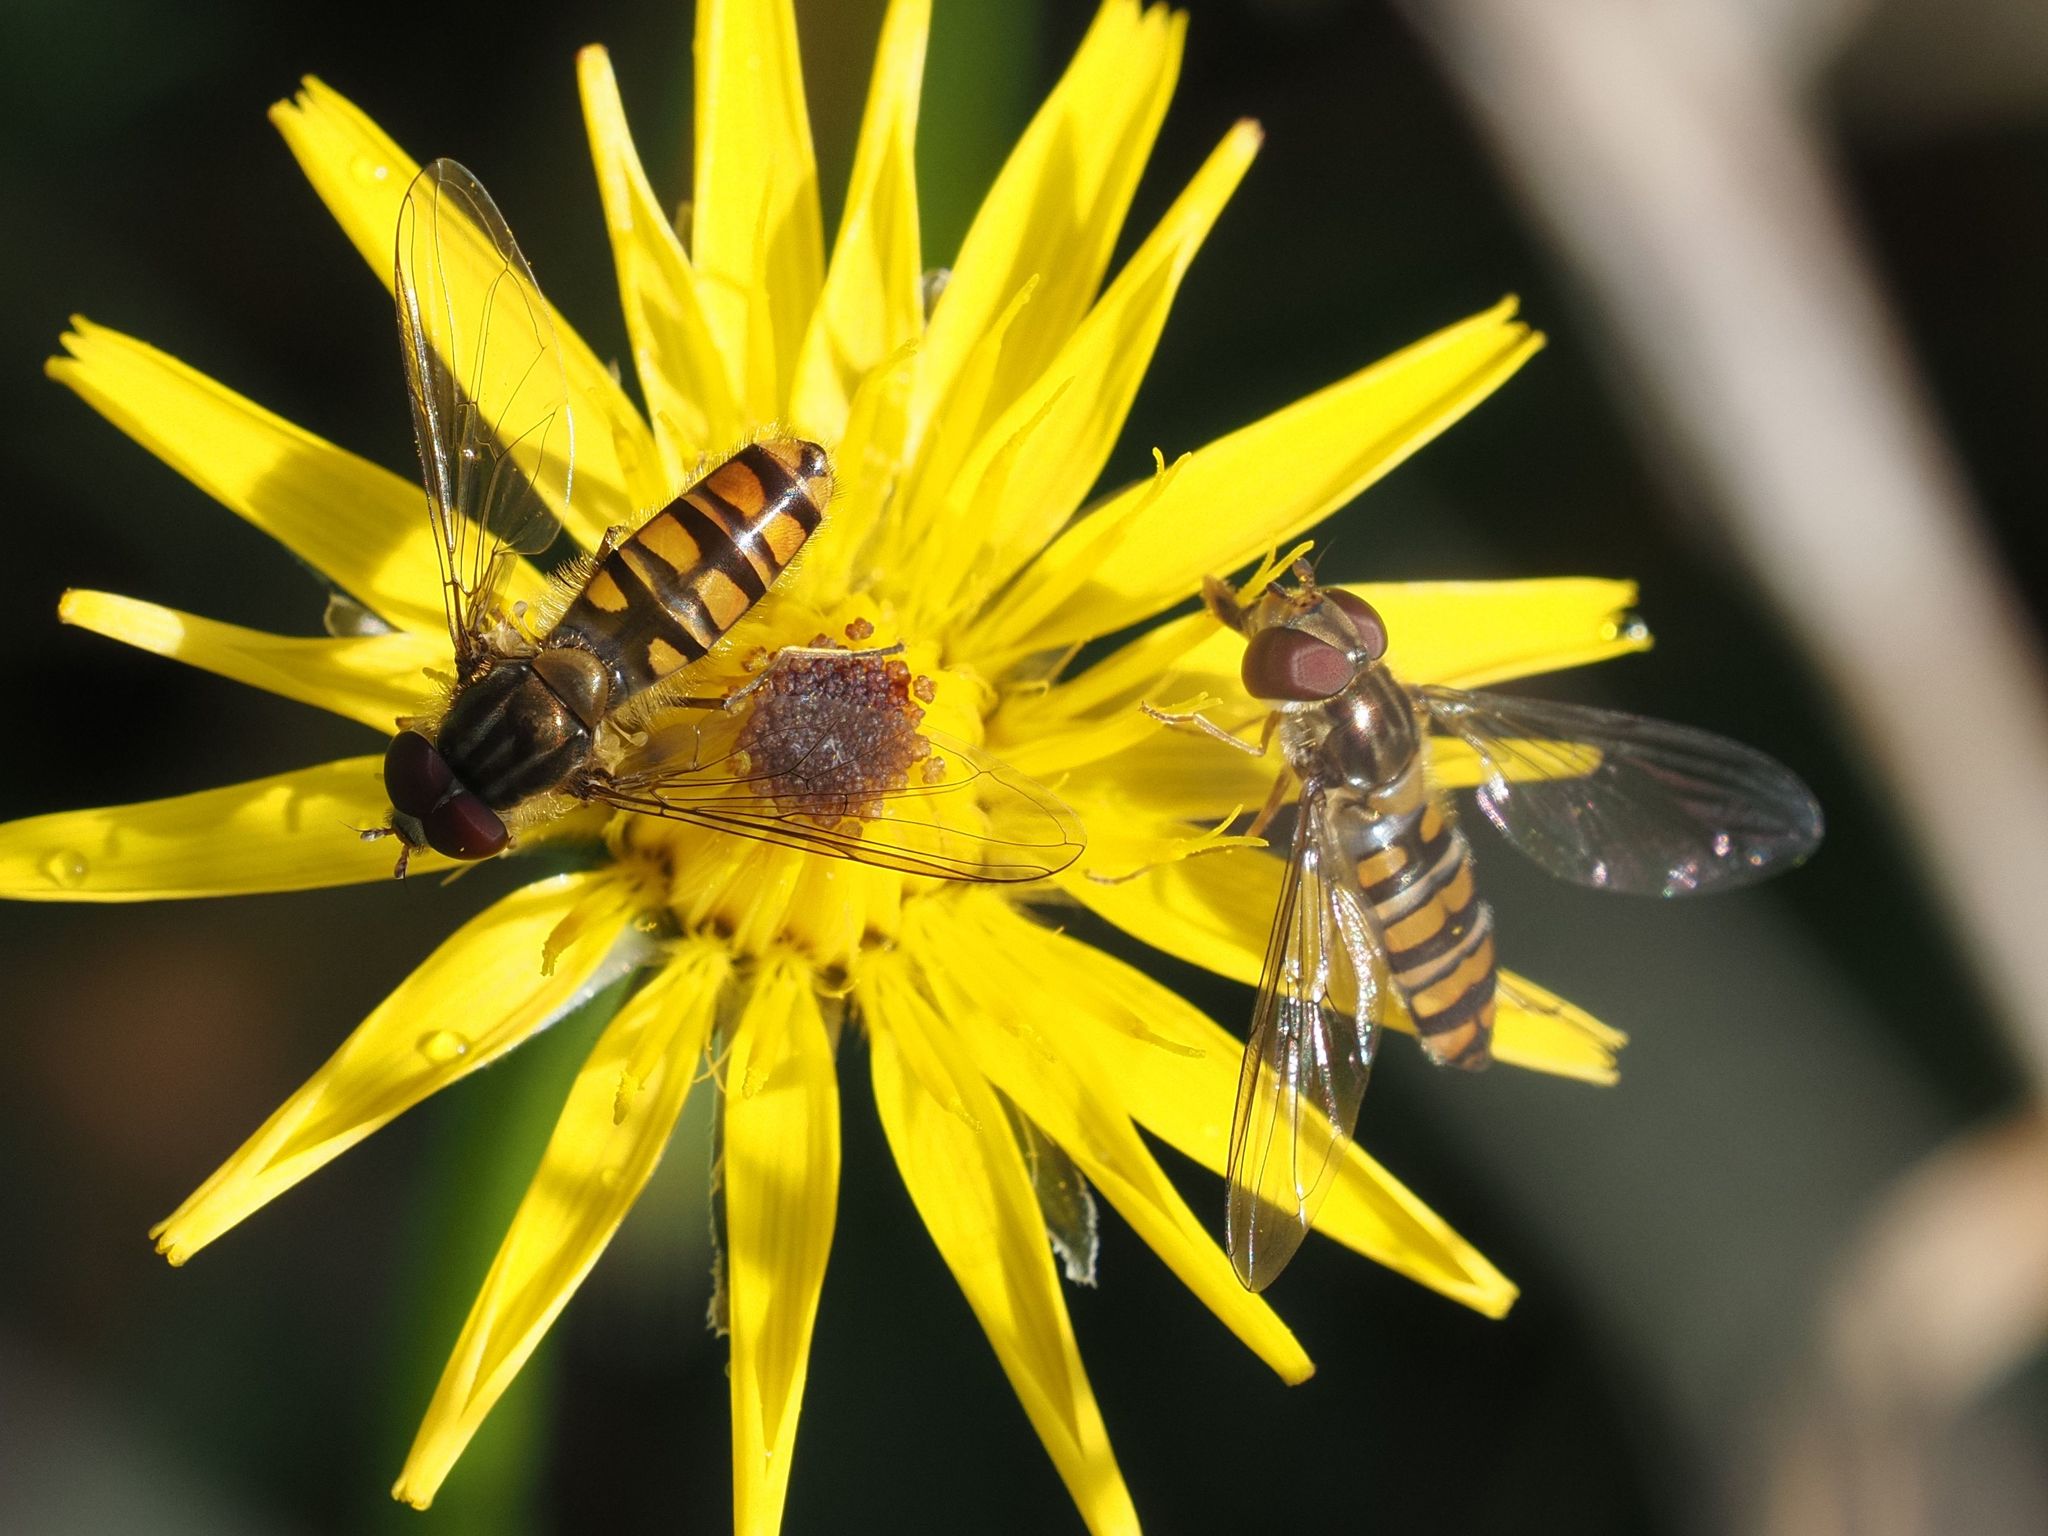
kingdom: Animalia
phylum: Arthropoda
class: Insecta
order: Diptera
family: Syrphidae
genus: Episyrphus
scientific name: Episyrphus balteatus
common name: Marmalade hoverfly
